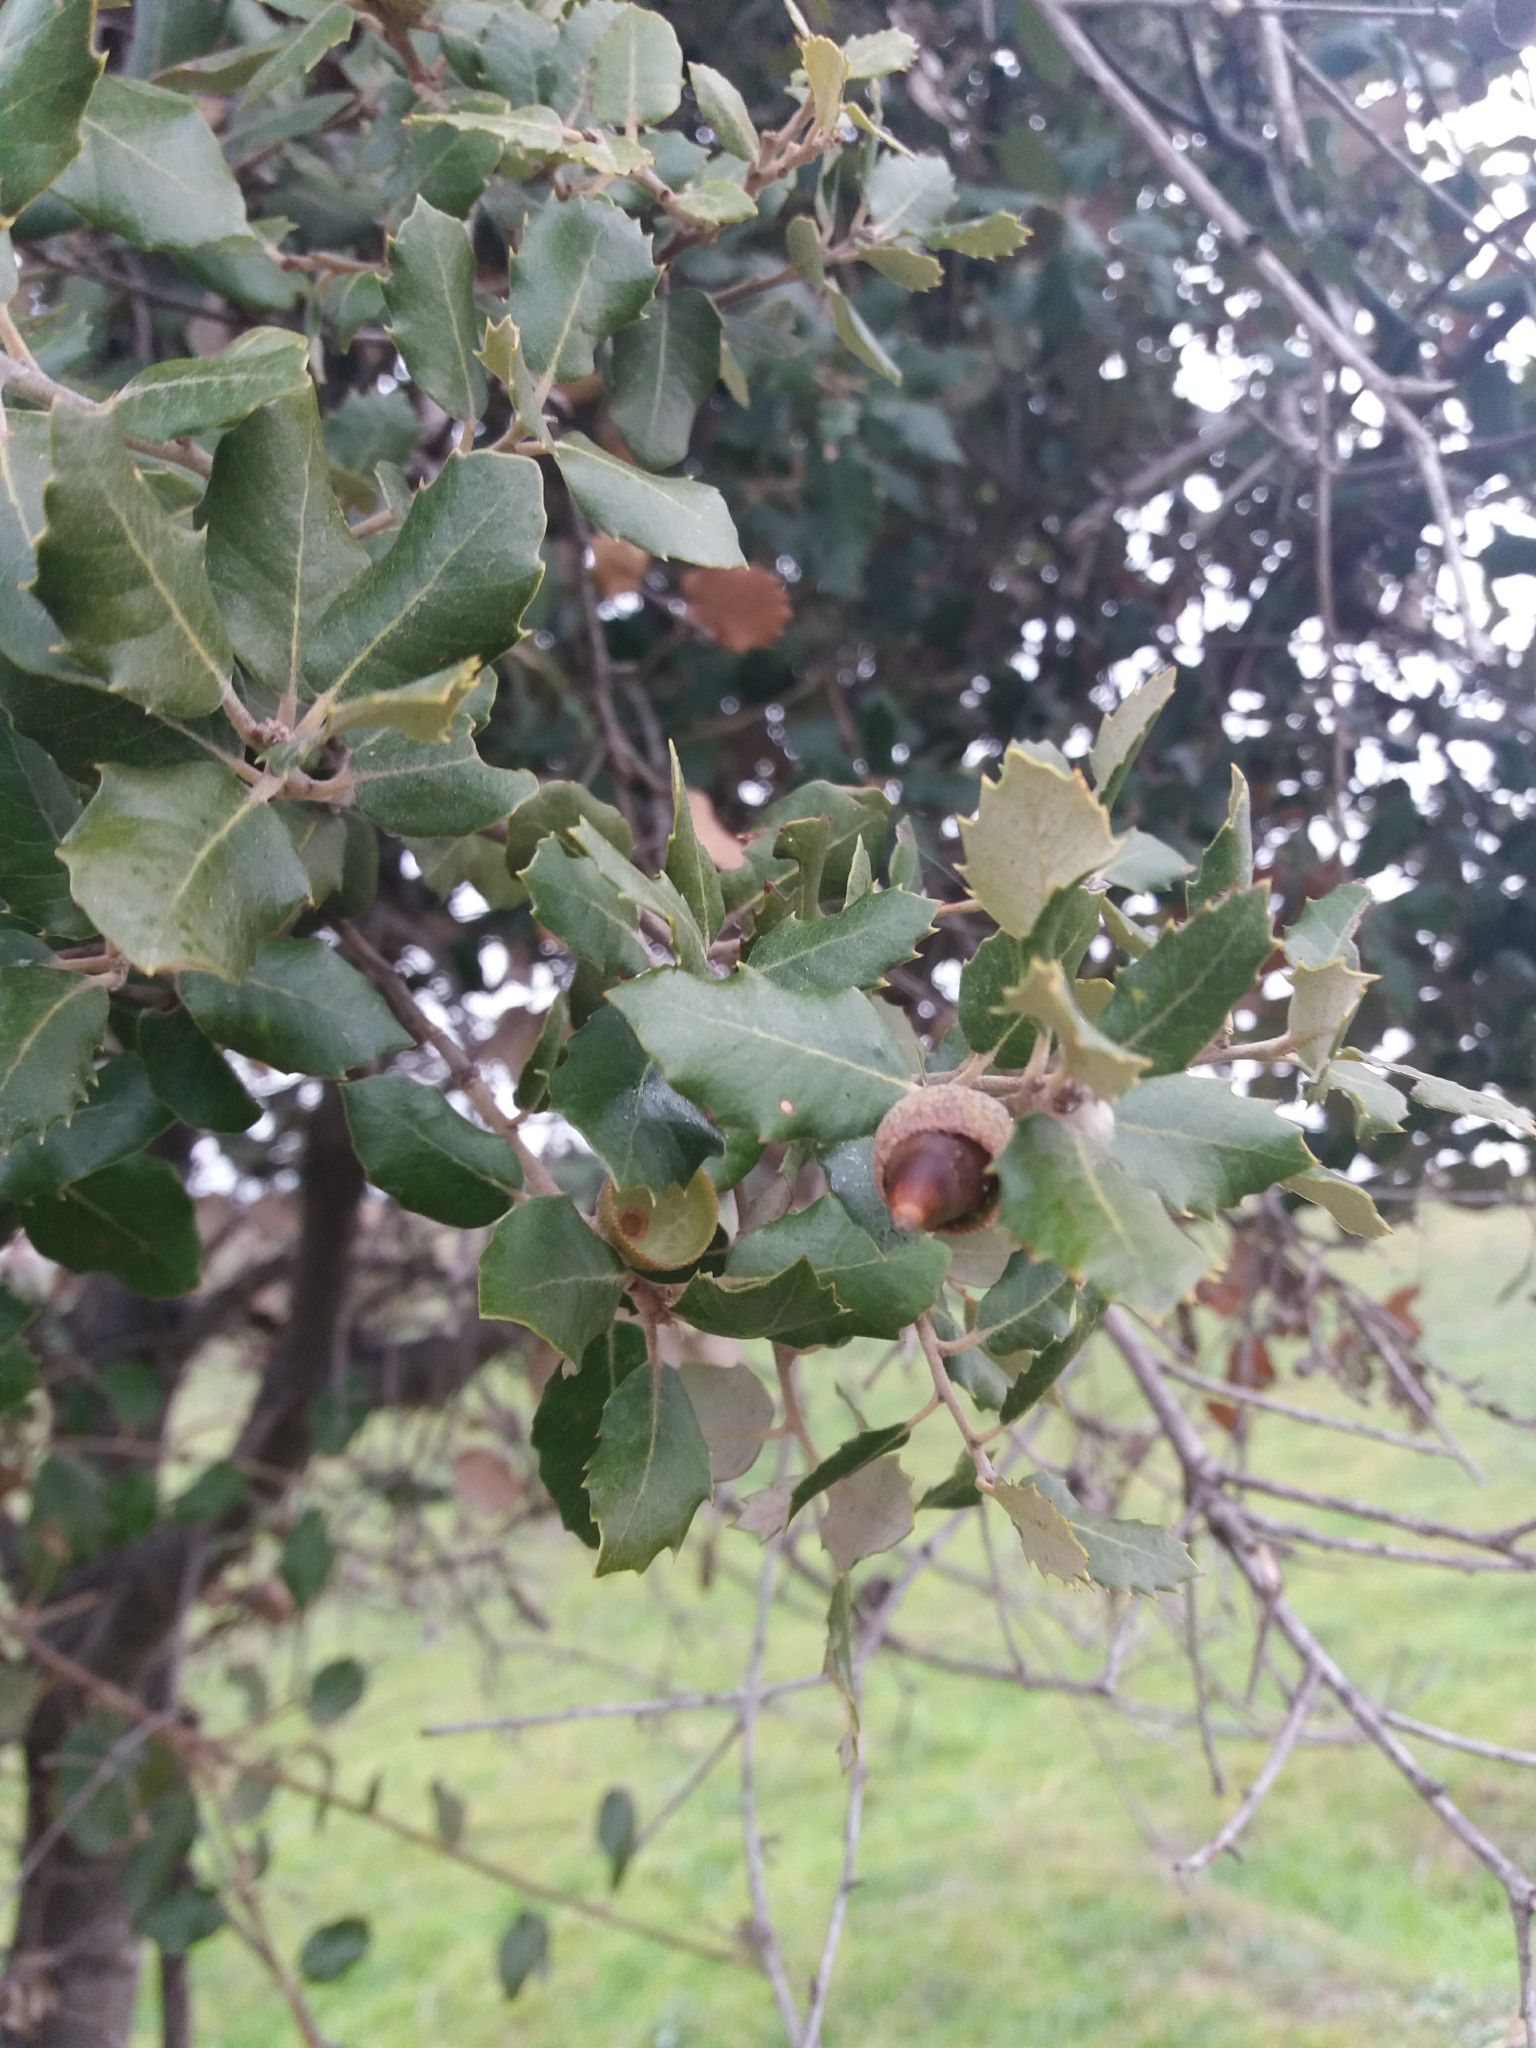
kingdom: Plantae
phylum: Tracheophyta
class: Magnoliopsida
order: Fagales
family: Fagaceae
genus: Quercus
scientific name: Quercus ilex
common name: Evergreen oak
